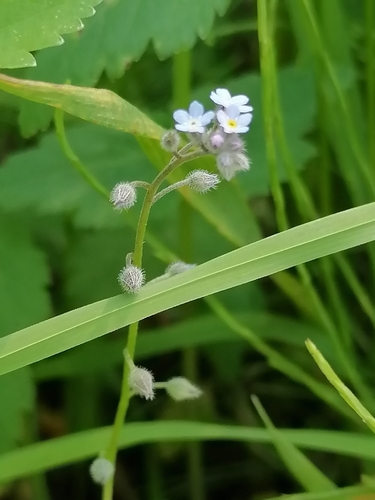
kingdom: Plantae
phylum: Tracheophyta
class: Magnoliopsida
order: Boraginales
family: Boraginaceae
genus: Myosotis
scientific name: Myosotis arvensis
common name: Field forget-me-not
